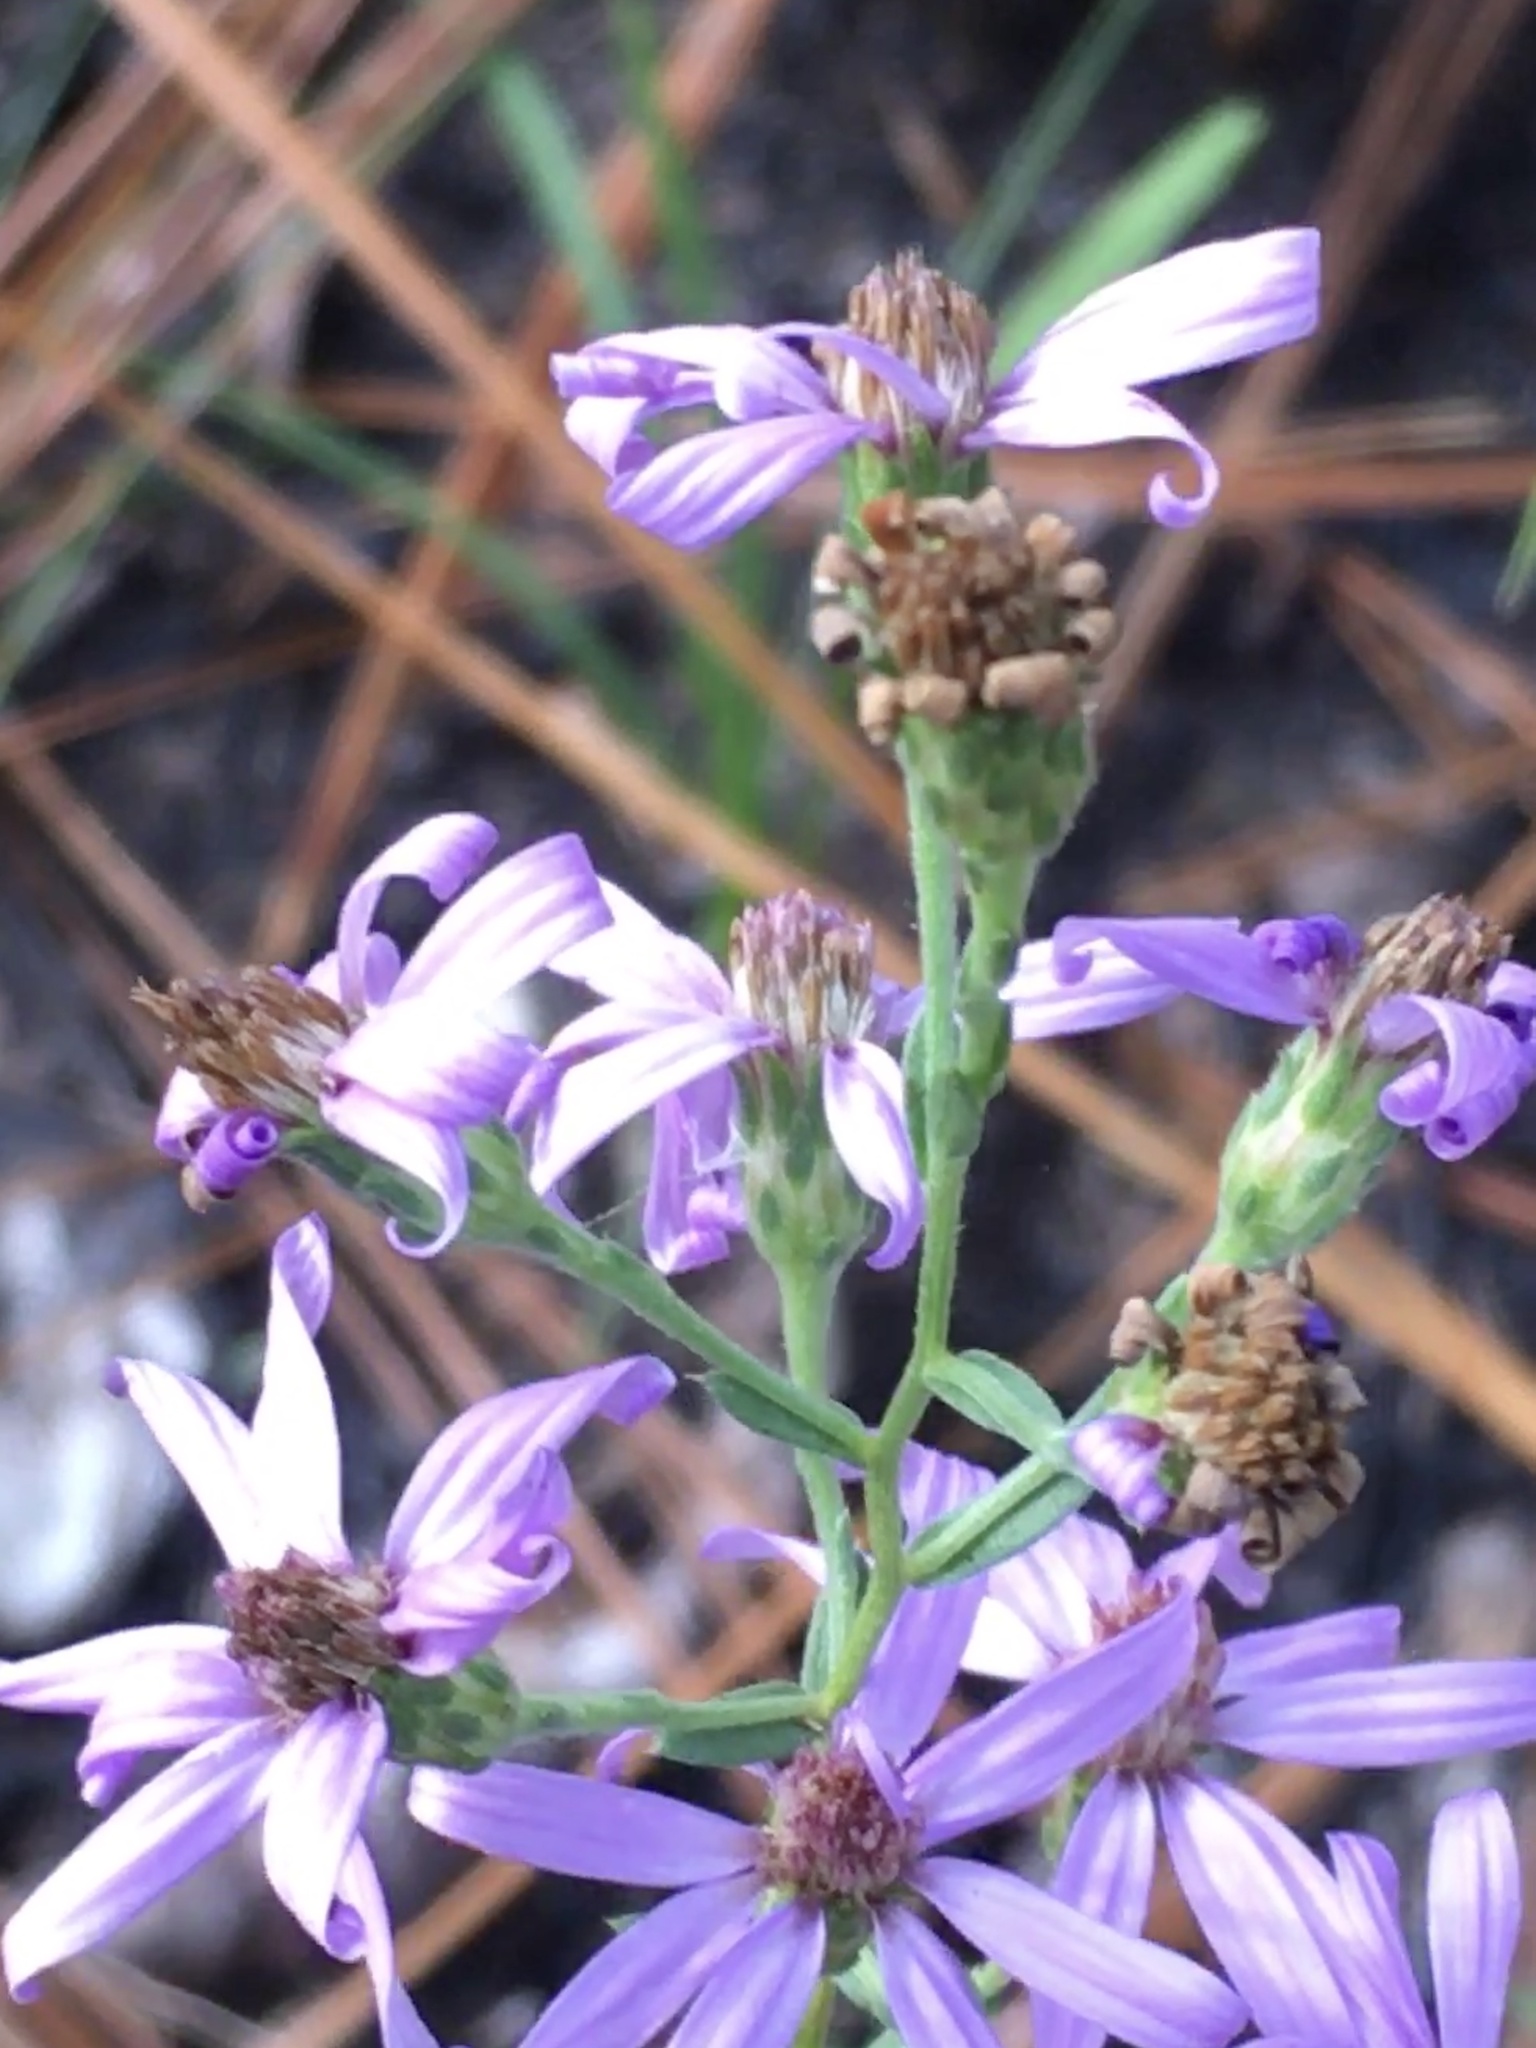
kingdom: Plantae
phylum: Tracheophyta
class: Magnoliopsida
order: Asterales
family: Asteraceae
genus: Symphyotrichum
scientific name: Symphyotrichum concolor
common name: Eastern silver aster
